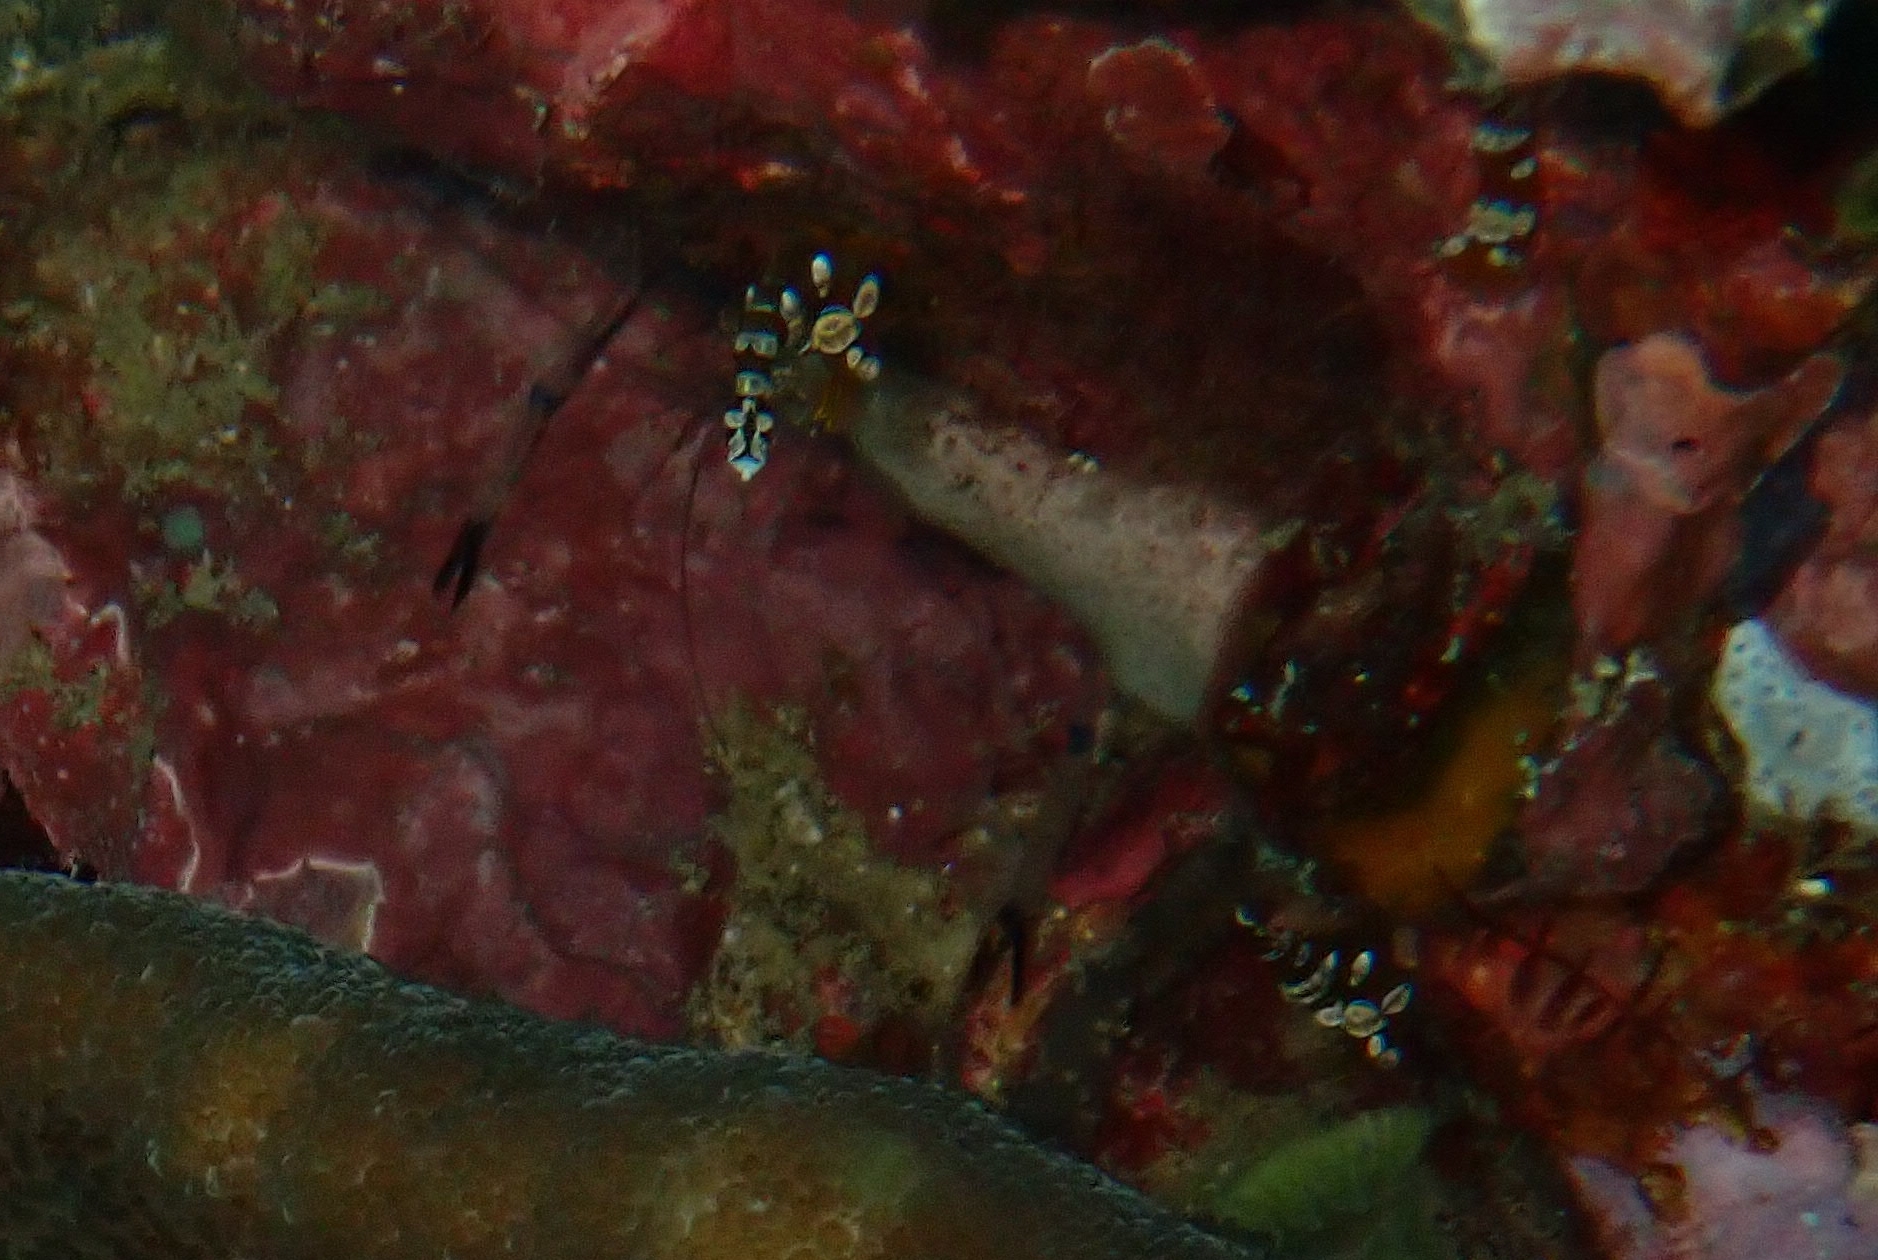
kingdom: Animalia
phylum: Arthropoda
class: Malacostraca
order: Decapoda
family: Thoridae
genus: Thor
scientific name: Thor amboinensis
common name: Squat anemone shrimp
